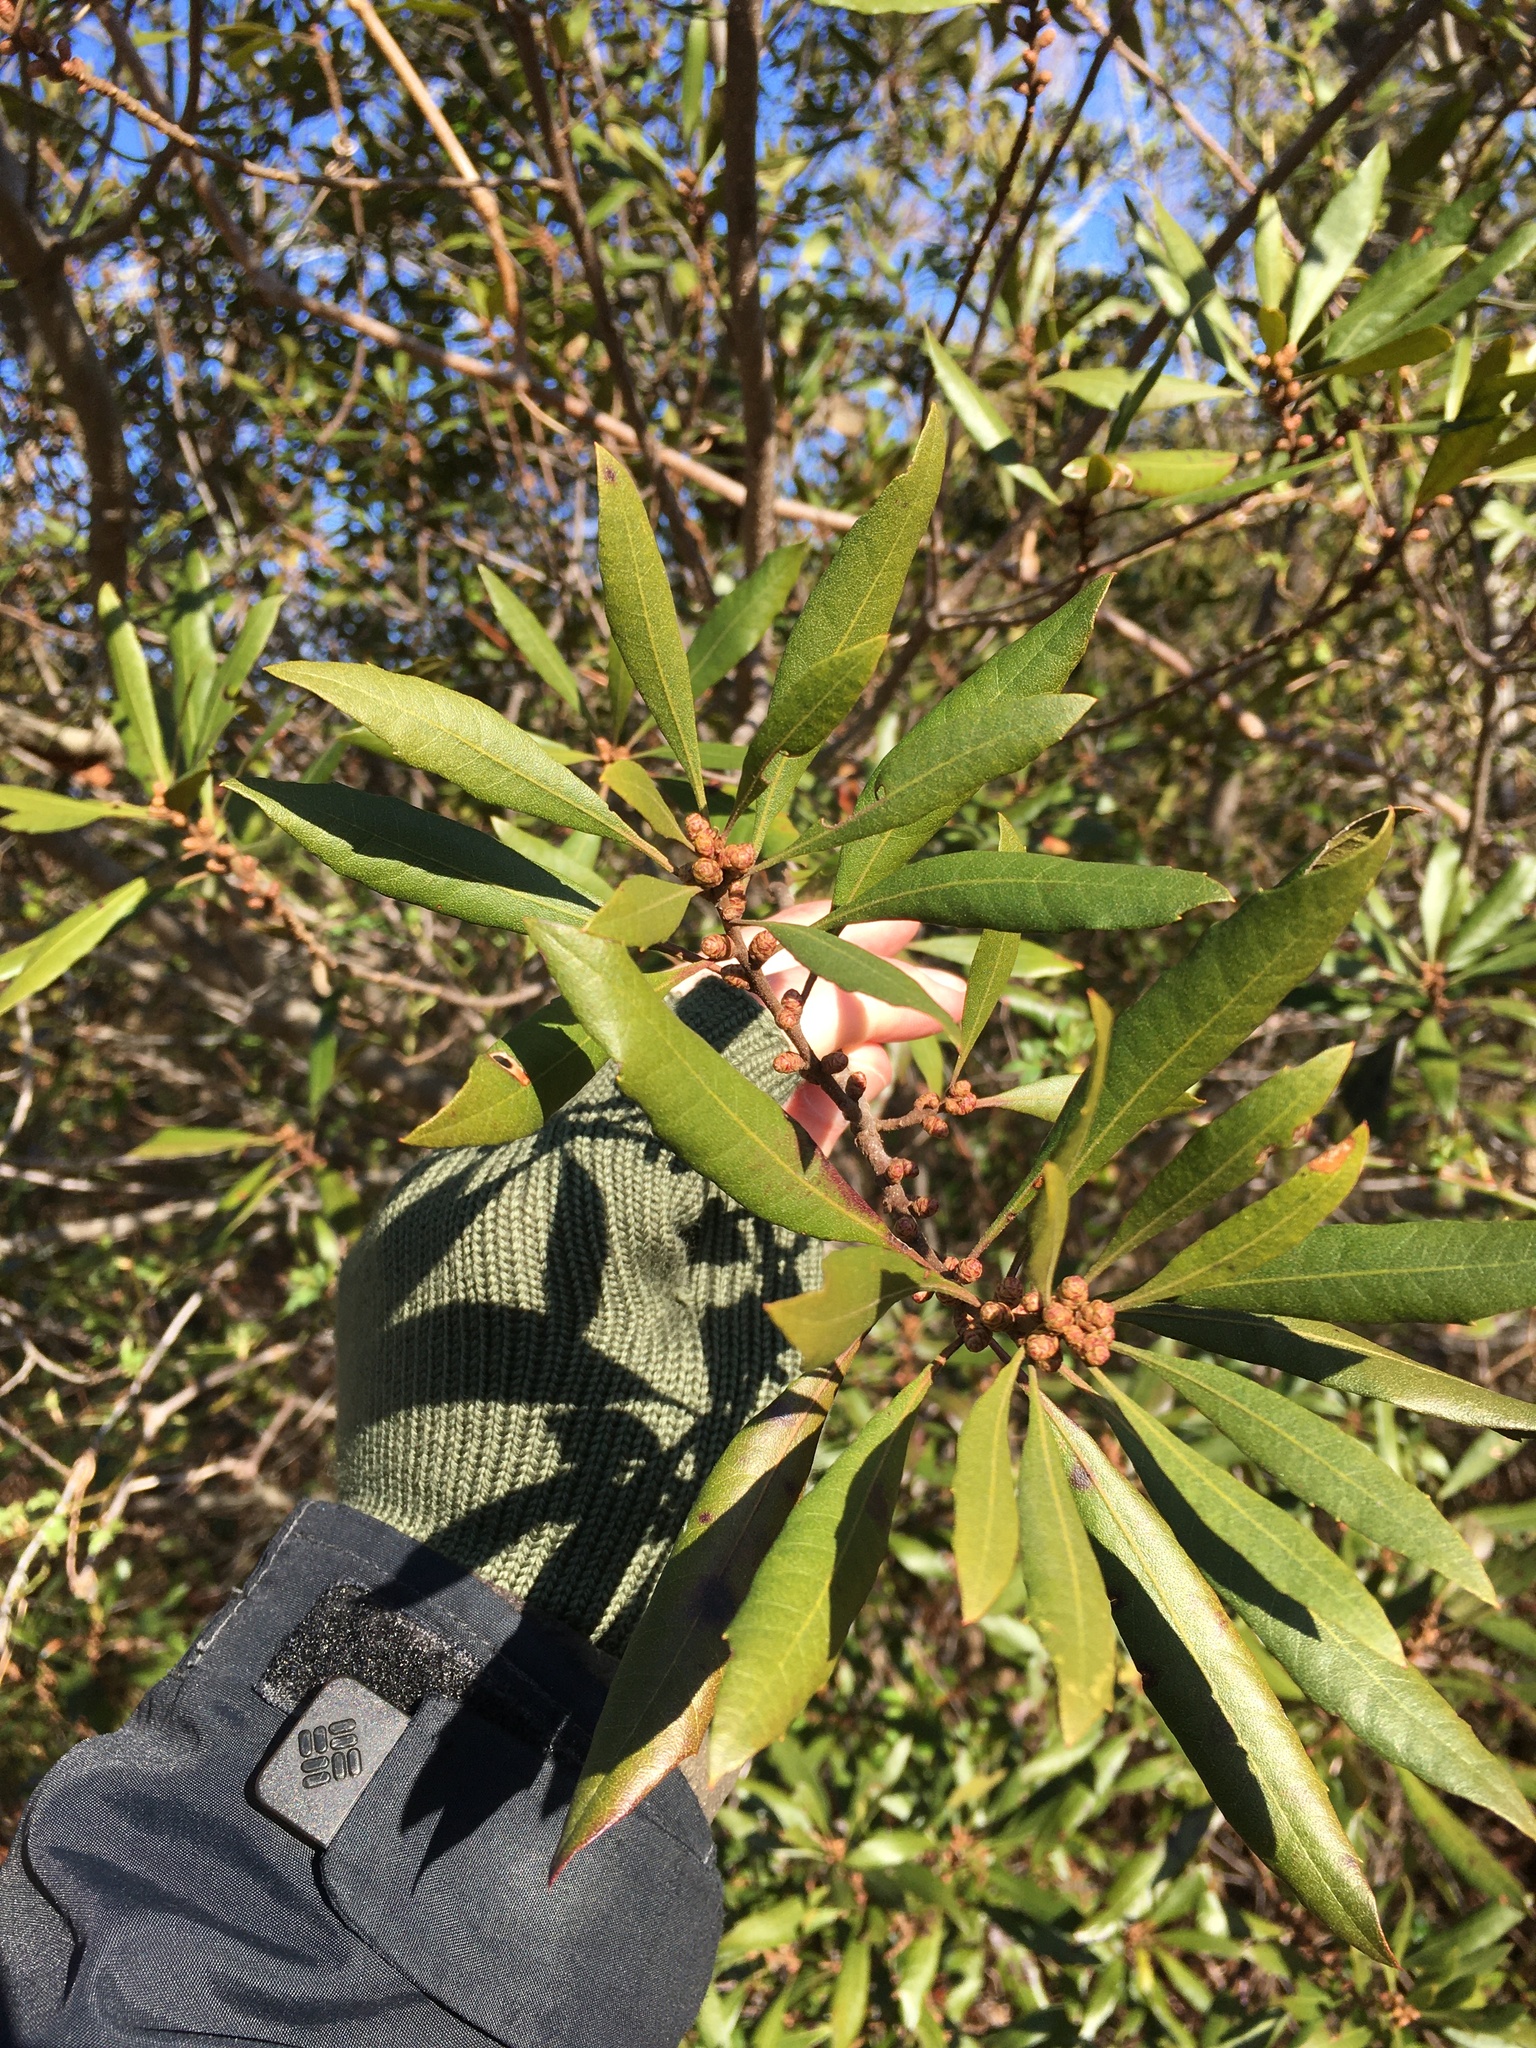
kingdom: Plantae
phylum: Tracheophyta
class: Magnoliopsida
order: Fagales
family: Myricaceae
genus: Morella
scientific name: Morella cerifera
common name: Wax myrtle
